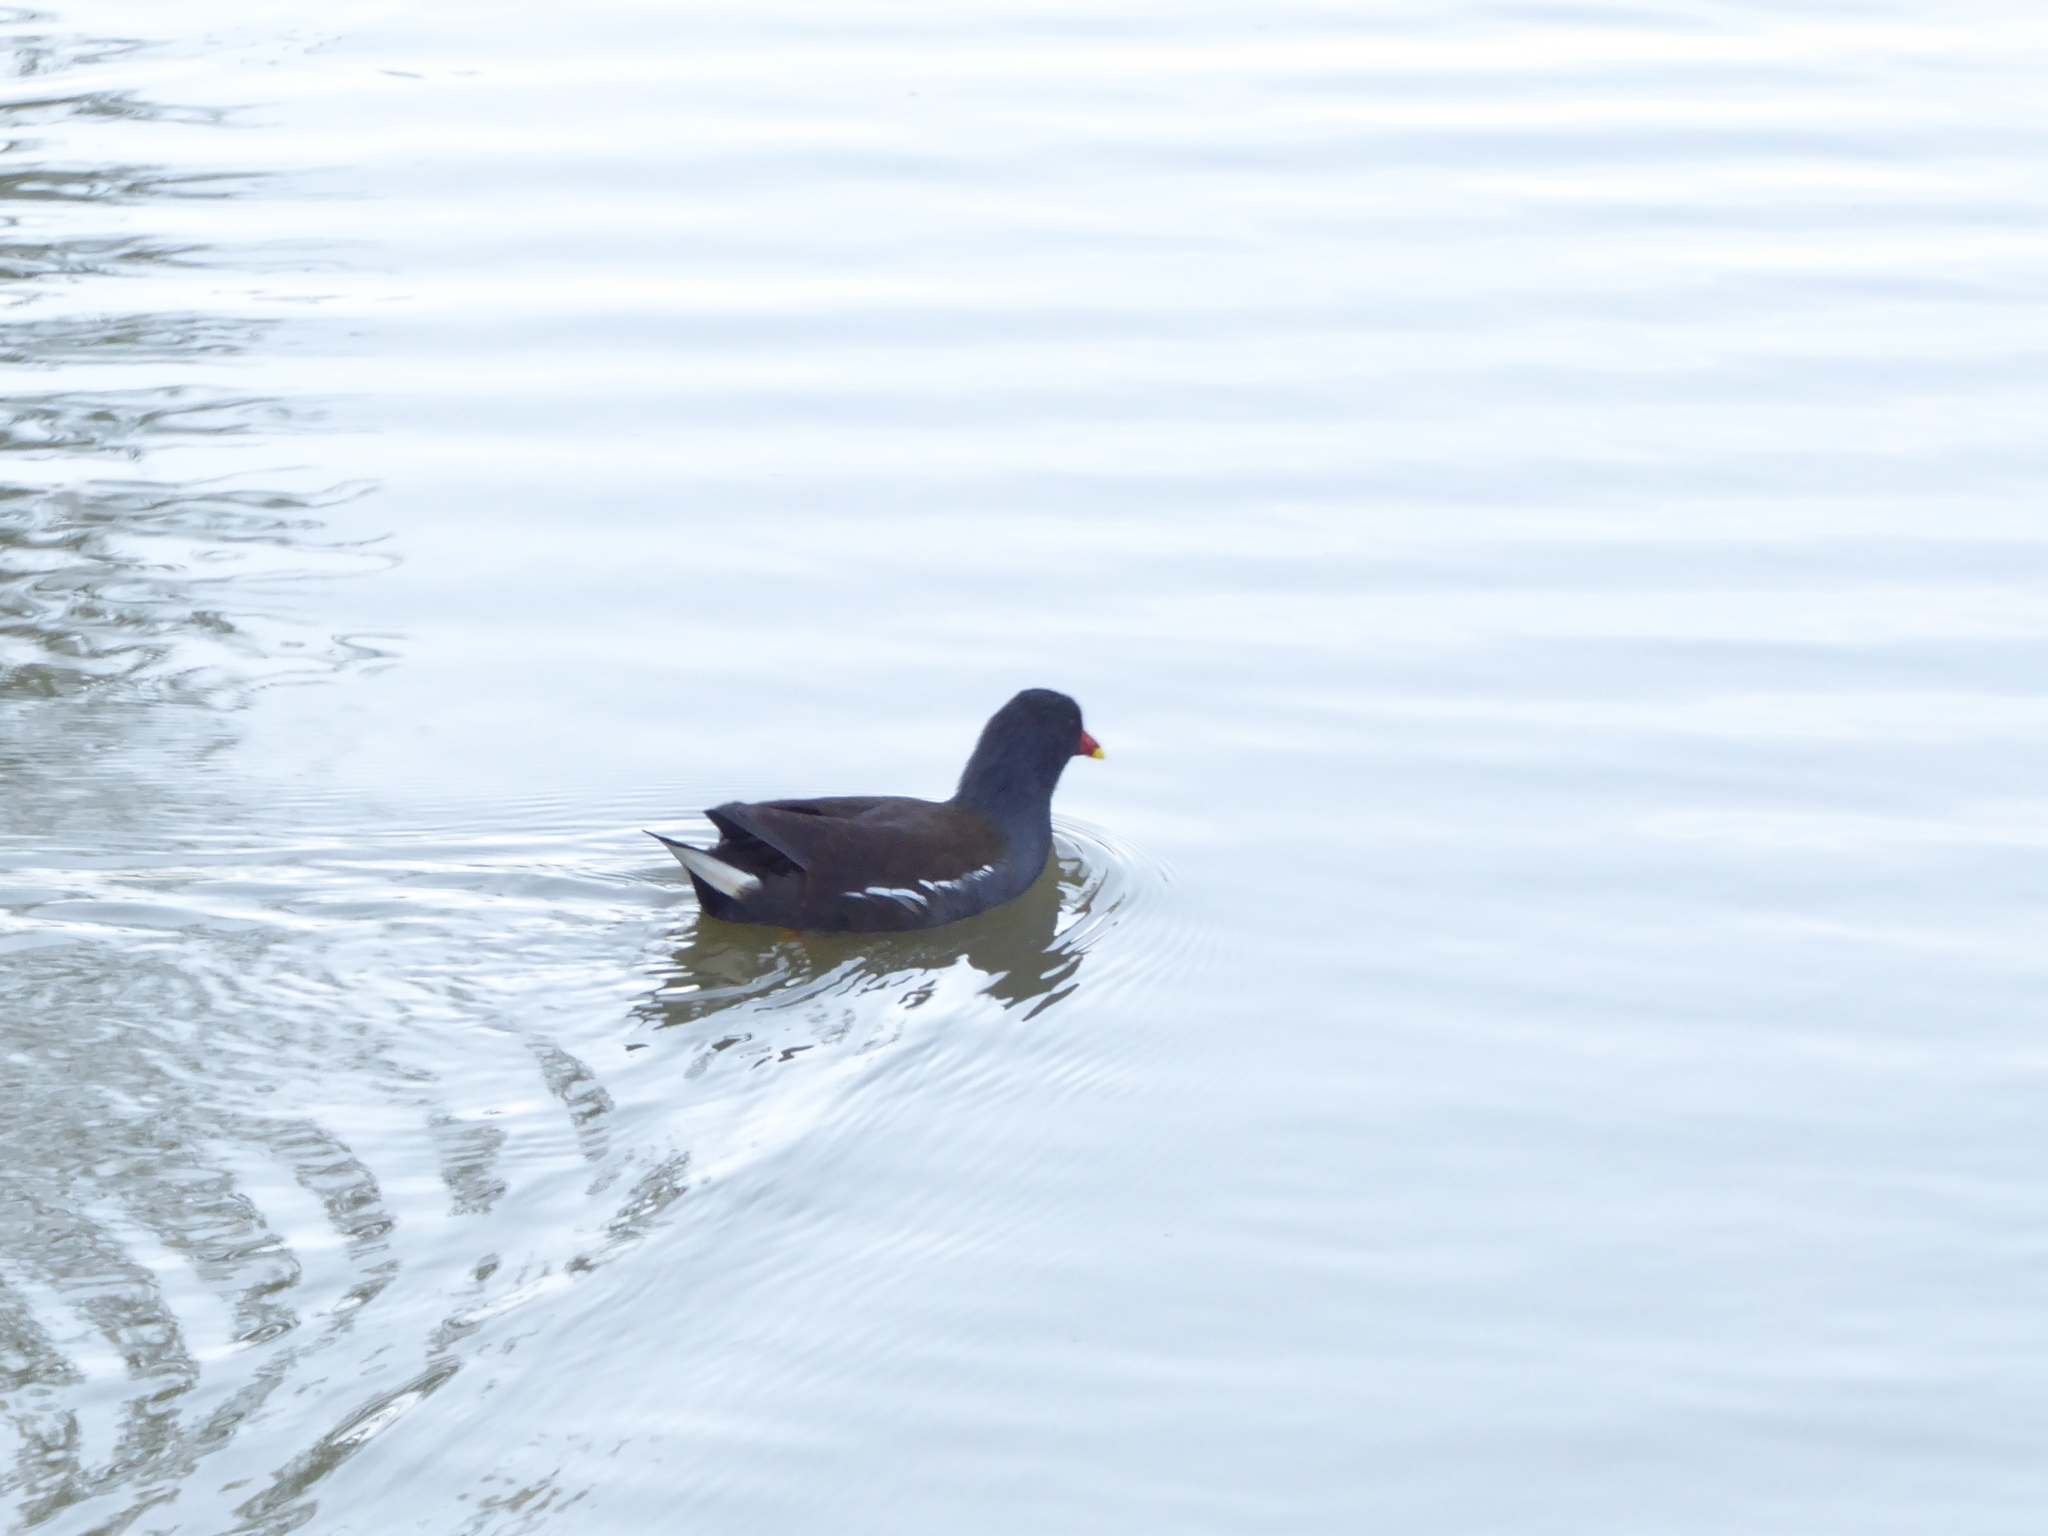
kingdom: Animalia
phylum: Chordata
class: Aves
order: Gruiformes
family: Rallidae
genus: Gallinula
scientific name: Gallinula chloropus
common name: Common moorhen
